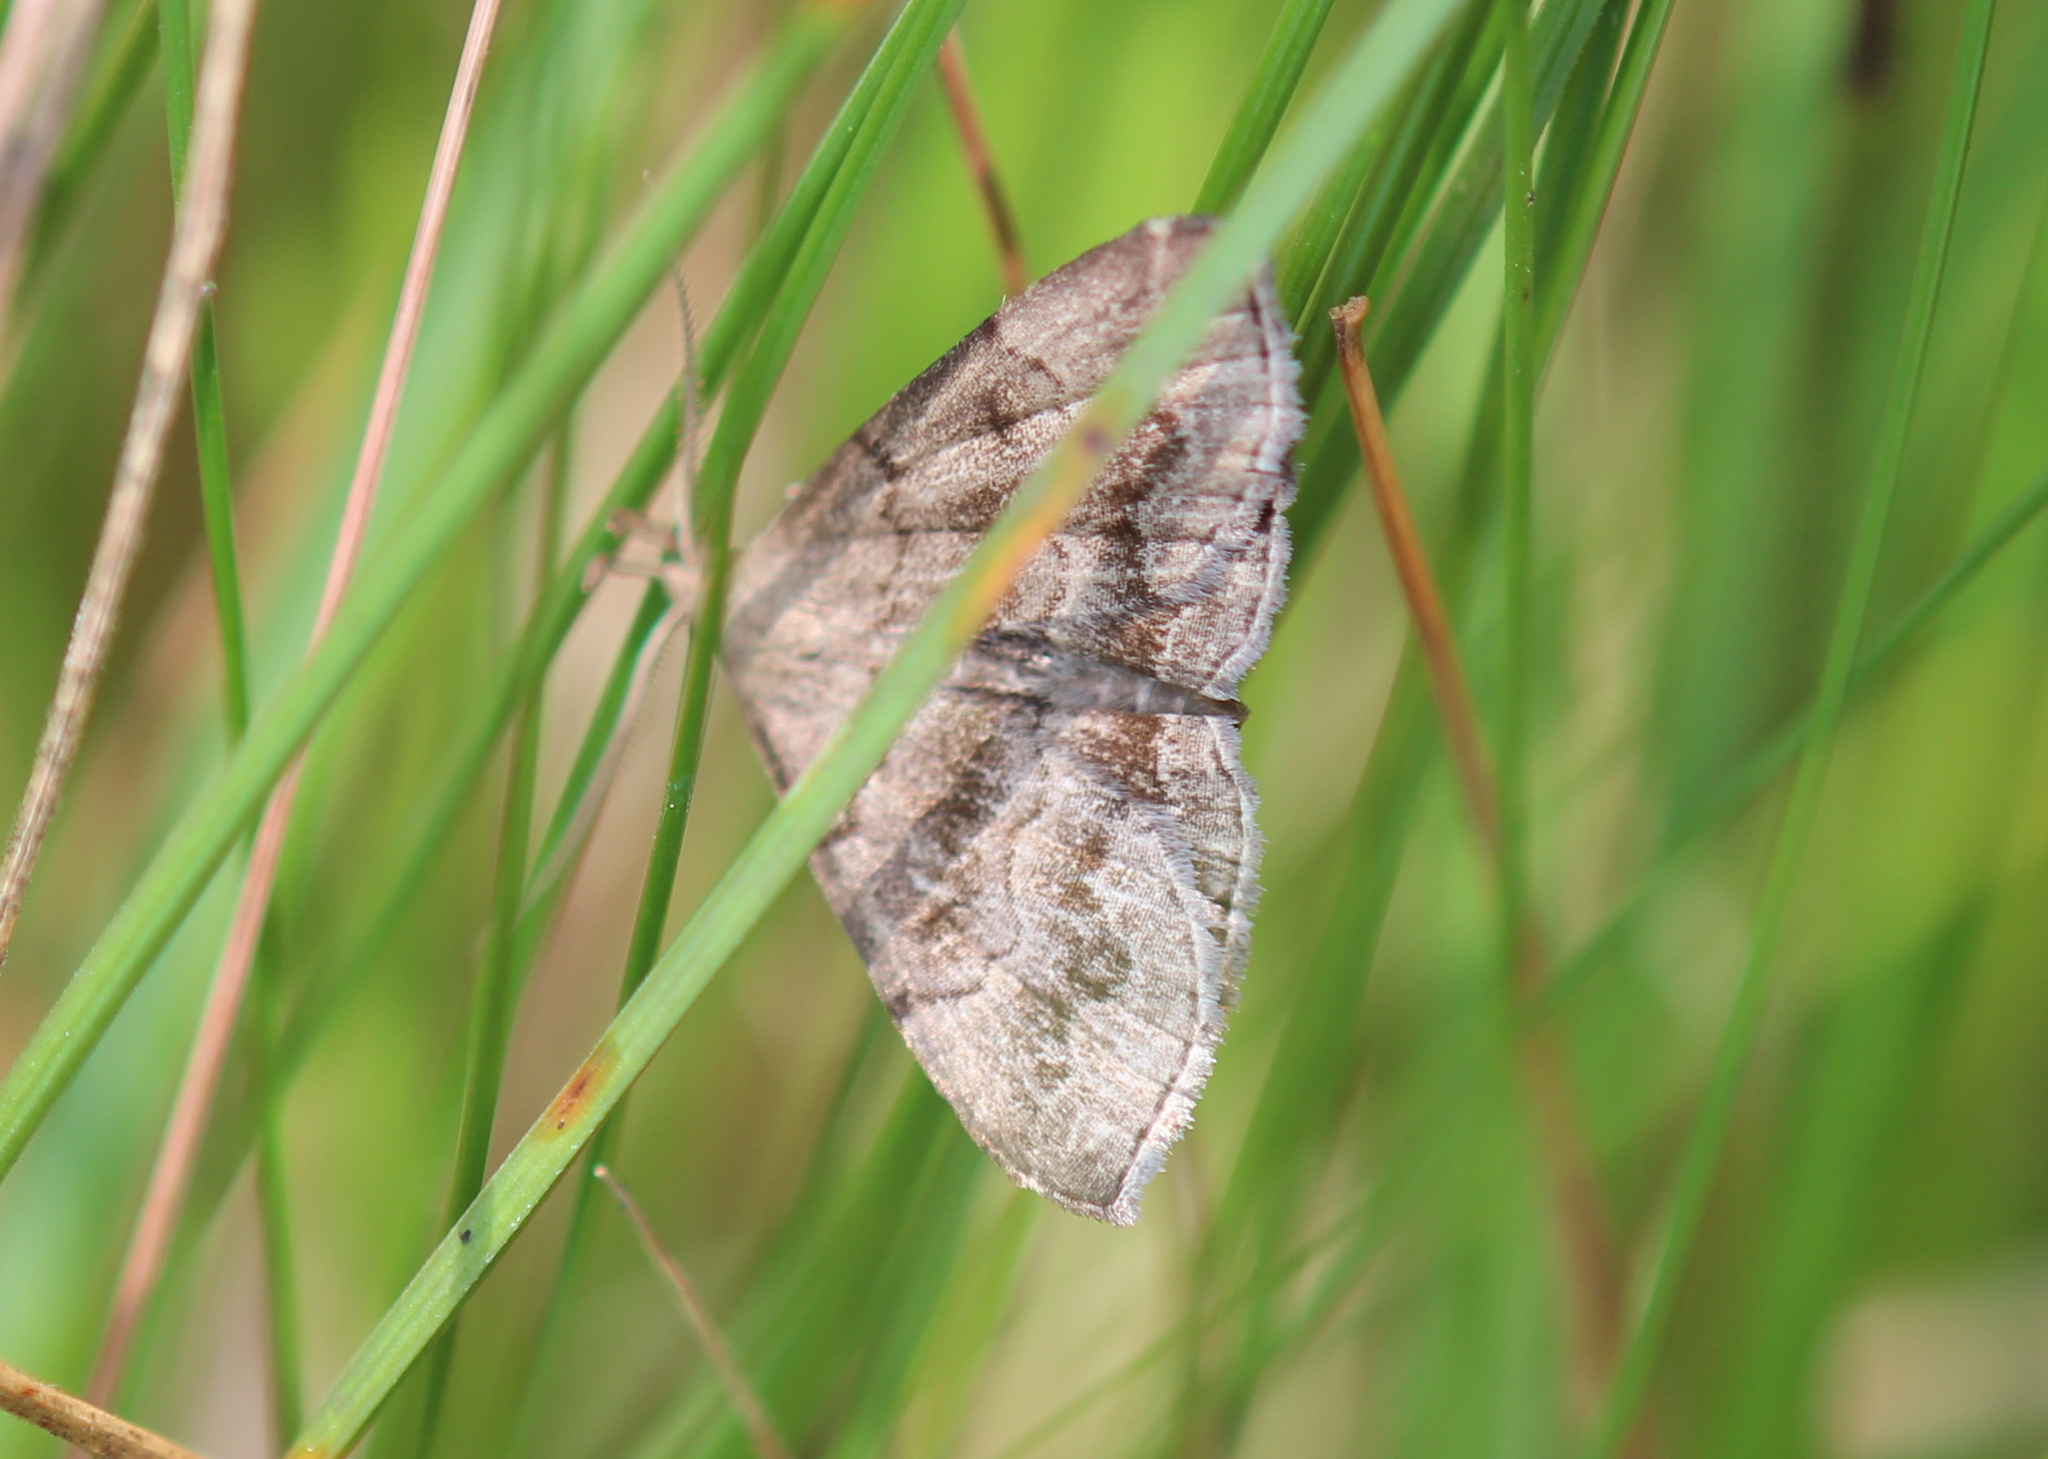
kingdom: Animalia
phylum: Arthropoda
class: Insecta
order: Lepidoptera
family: Erebidae
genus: Phalaenostola
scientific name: Phalaenostola larentioides
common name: Black-banded owlet
